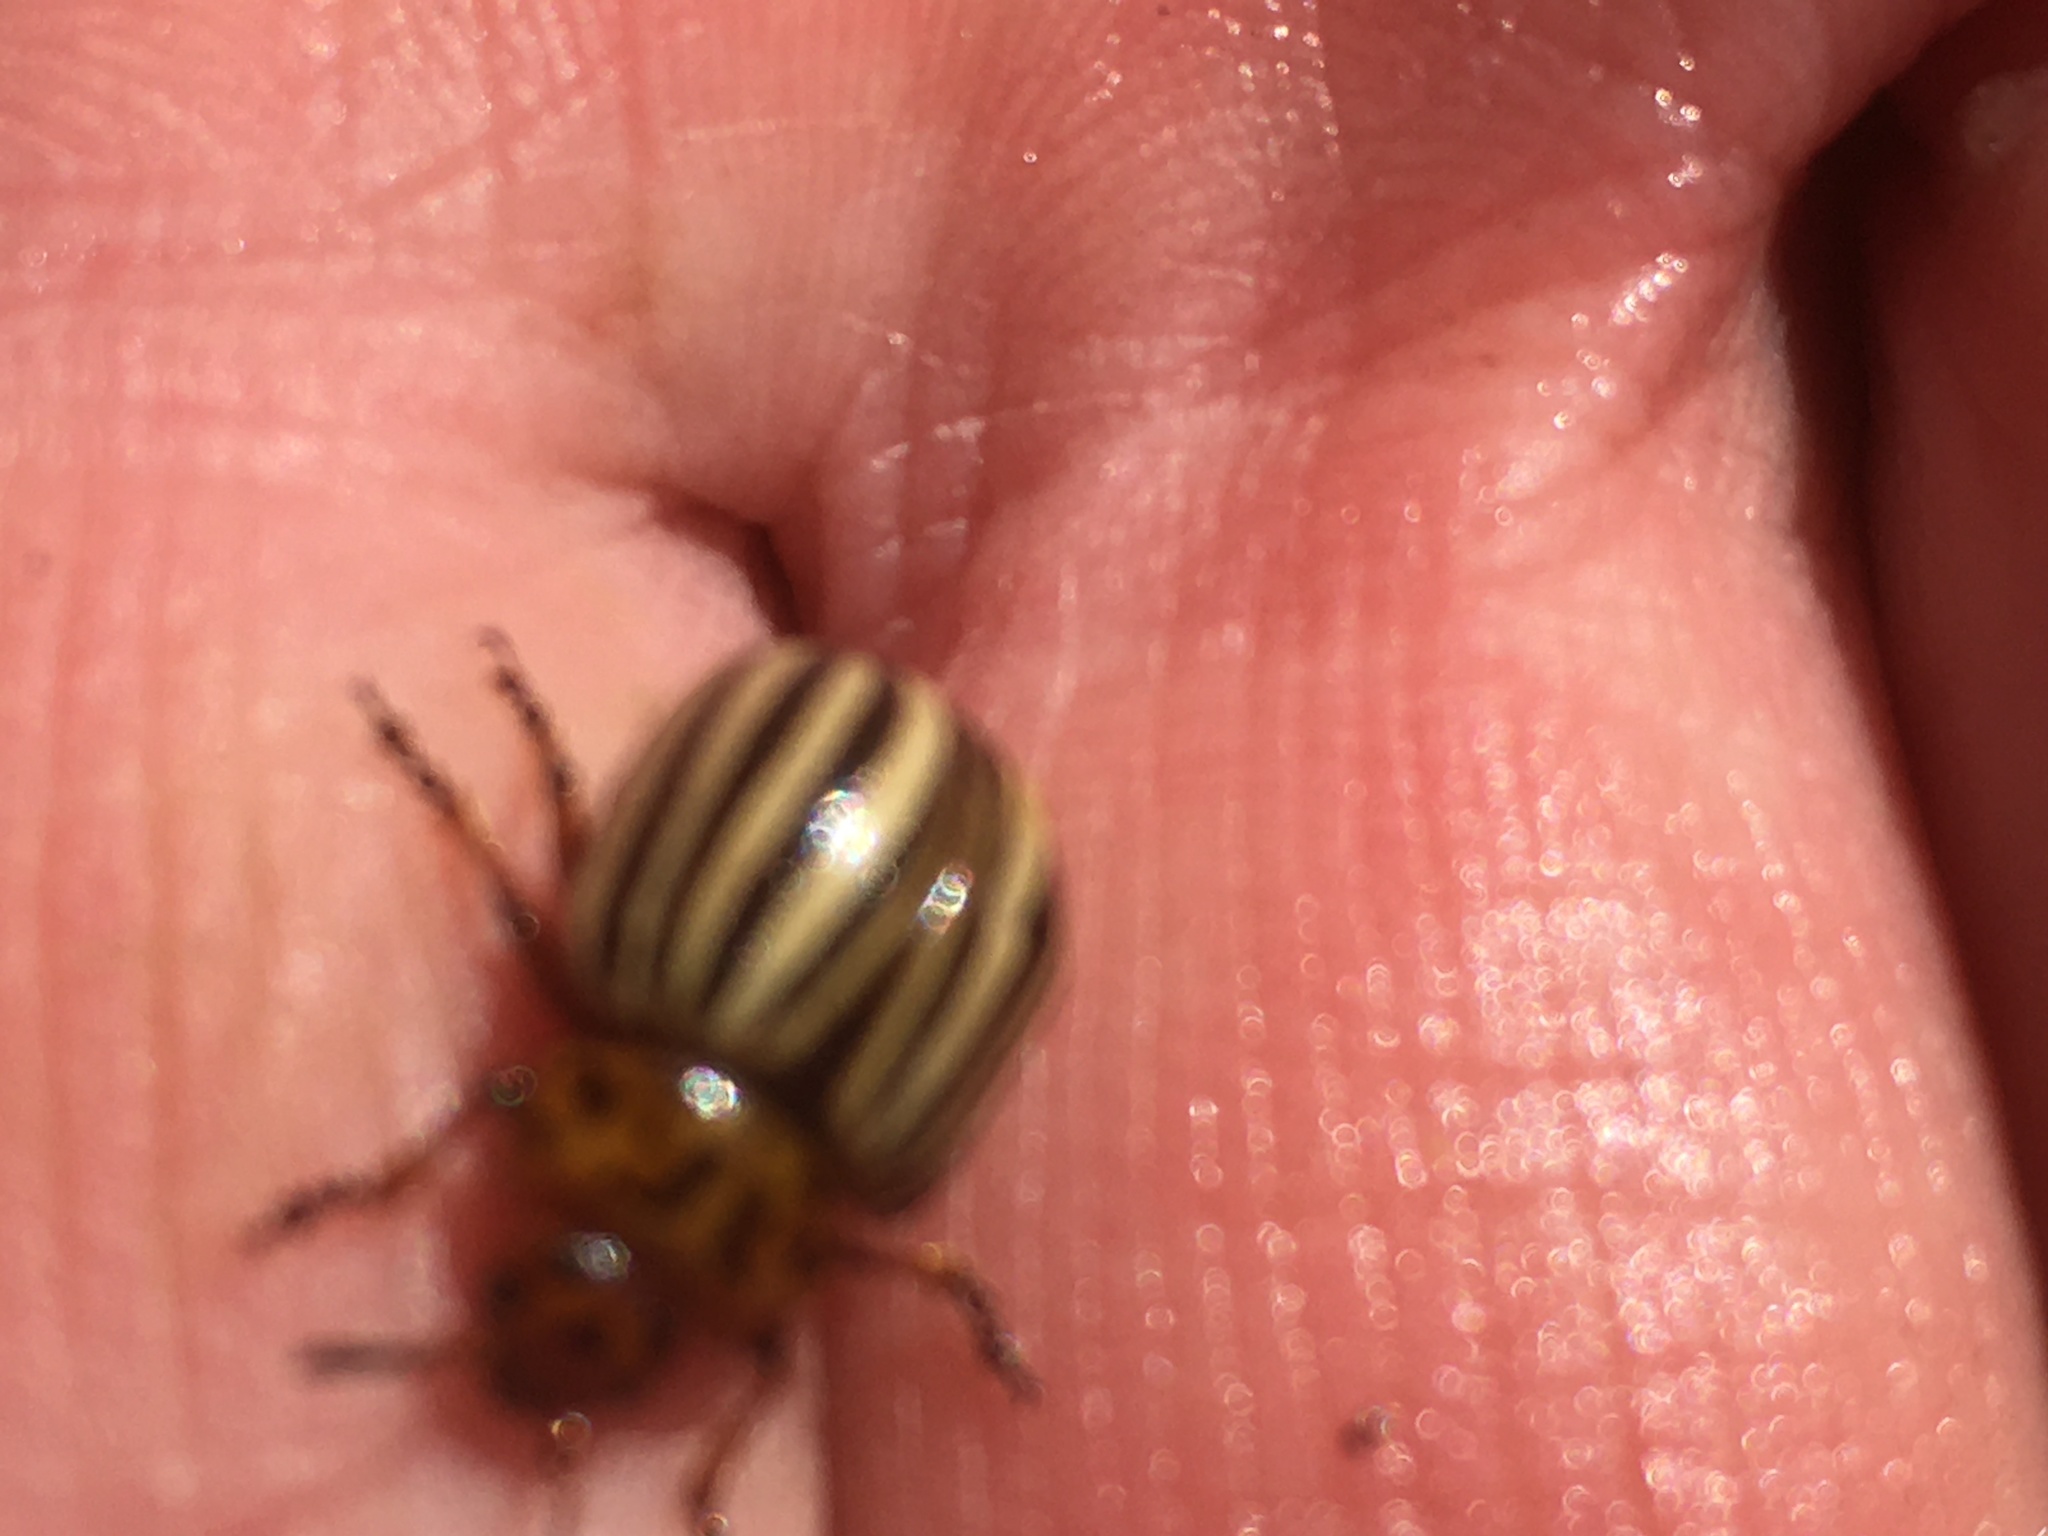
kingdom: Animalia
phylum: Arthropoda
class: Insecta
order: Coleoptera
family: Chrysomelidae
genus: Leptinotarsa
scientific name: Leptinotarsa decemlineata
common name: Colorado potato beetle
